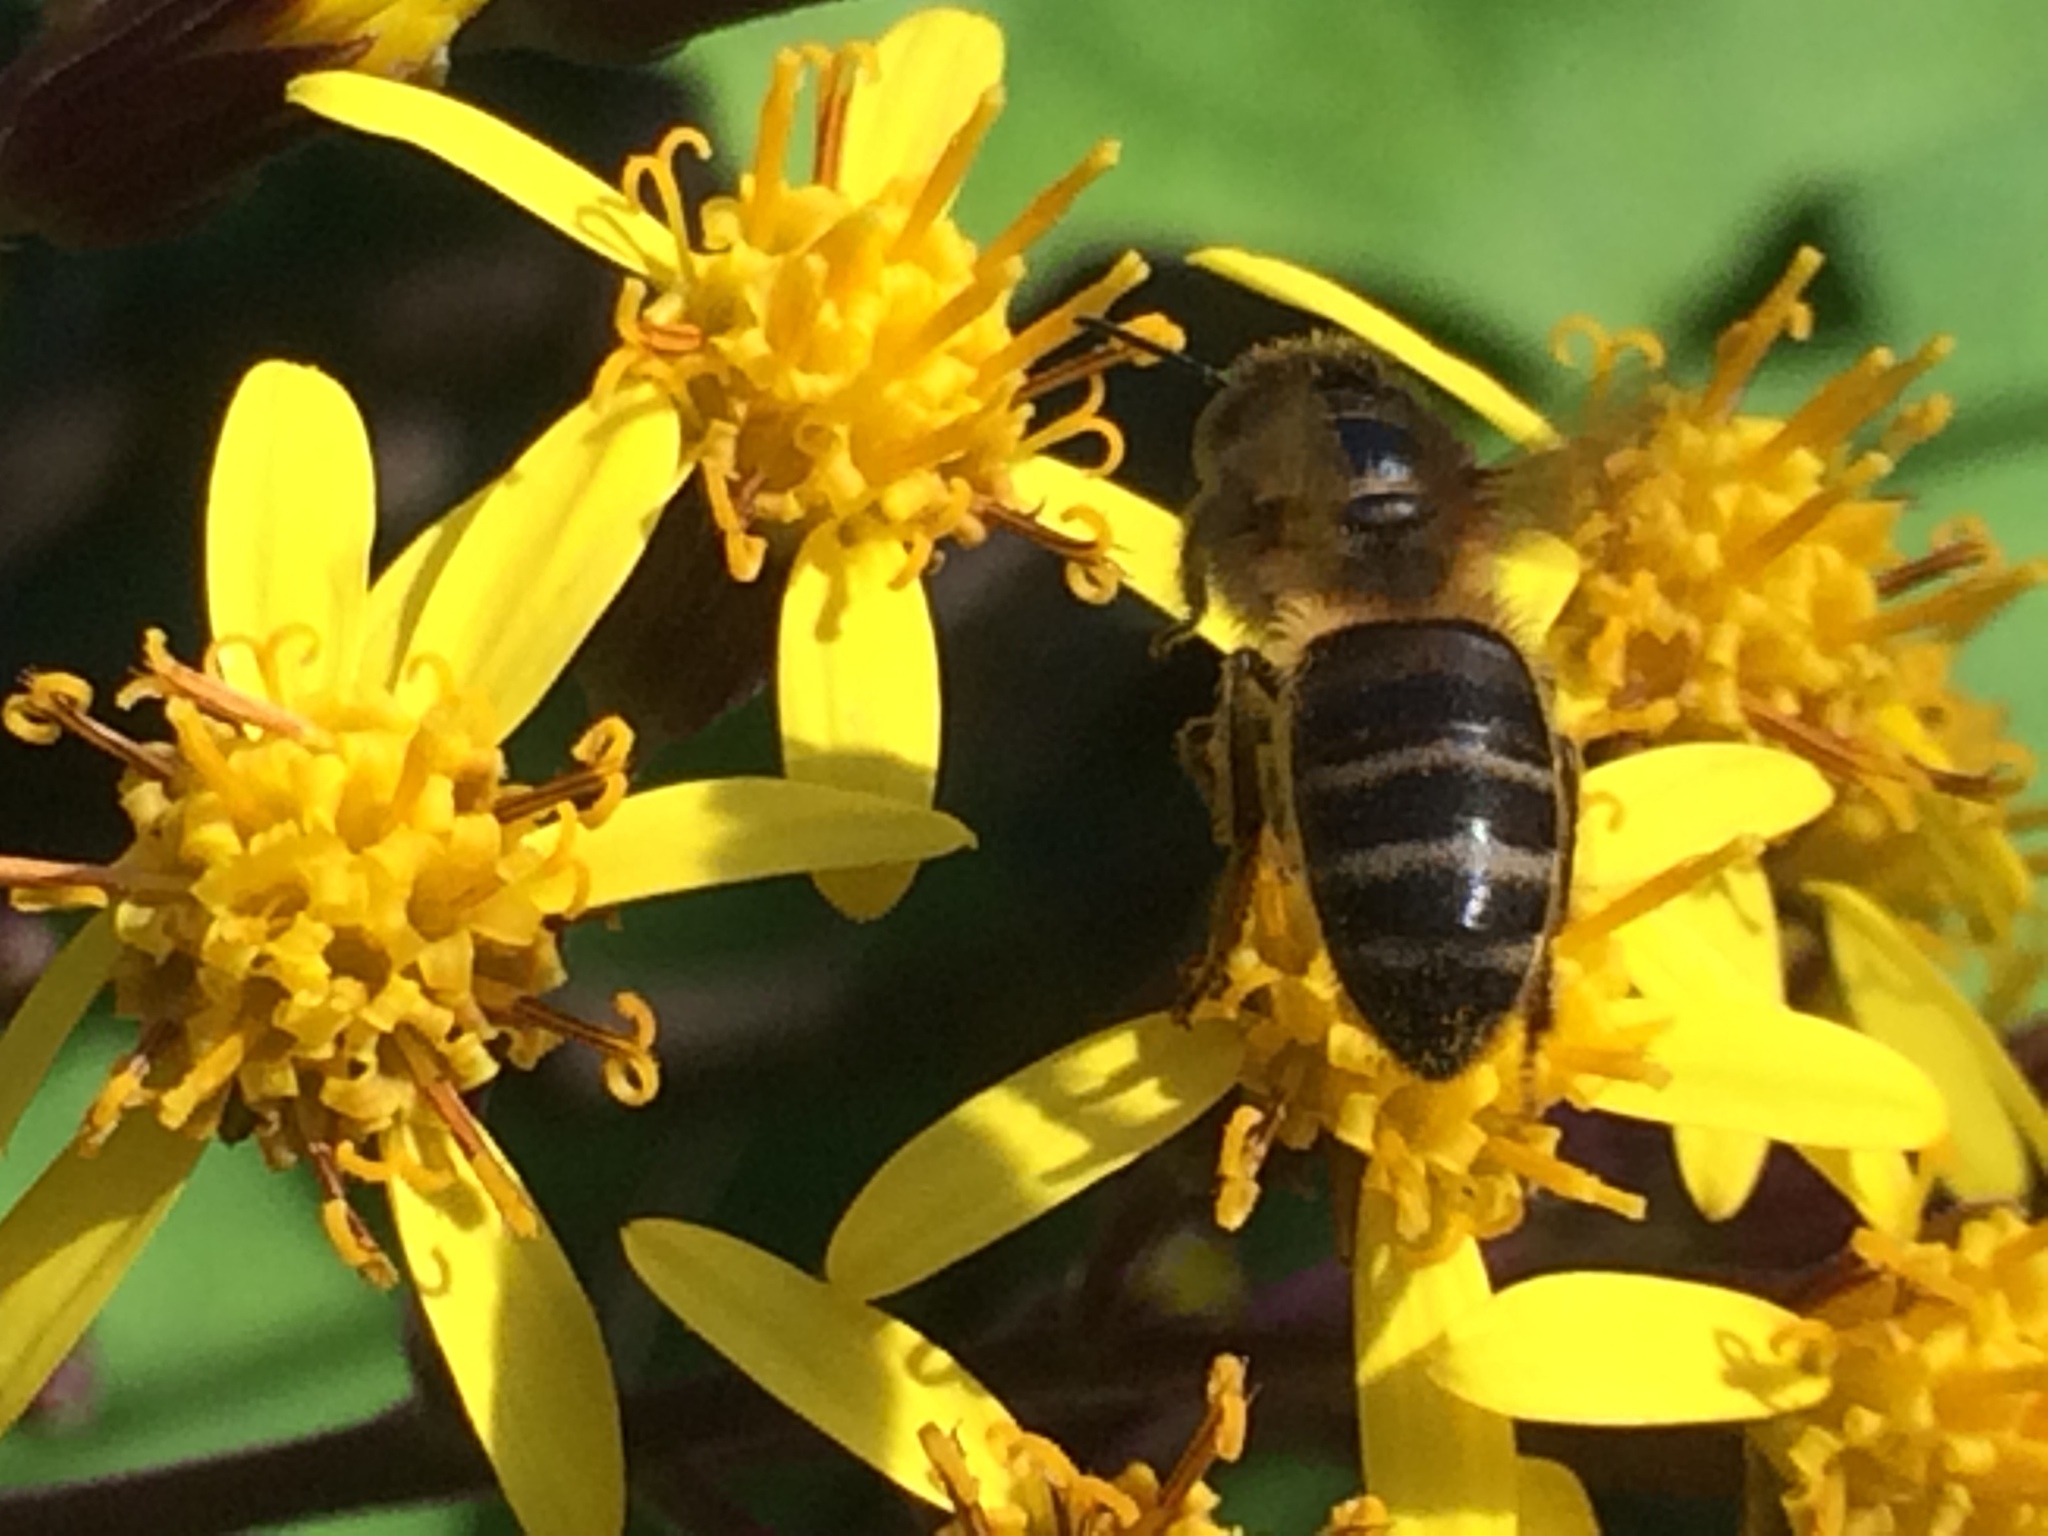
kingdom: Animalia
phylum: Arthropoda
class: Insecta
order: Hymenoptera
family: Apidae
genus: Apis
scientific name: Apis mellifera
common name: Honey bee
